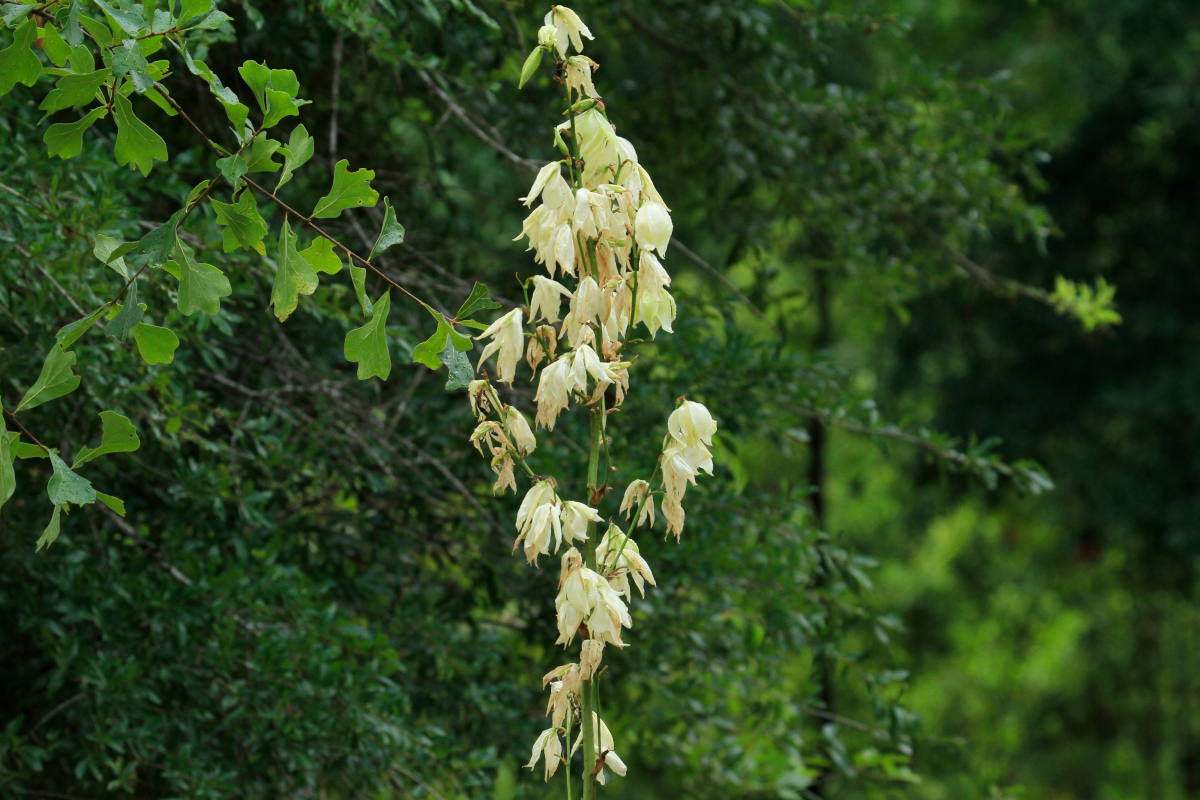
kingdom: Plantae
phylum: Tracheophyta
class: Liliopsida
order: Asparagales
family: Asparagaceae
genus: Yucca
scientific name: Yucca flaccida
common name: Adam's-needle
